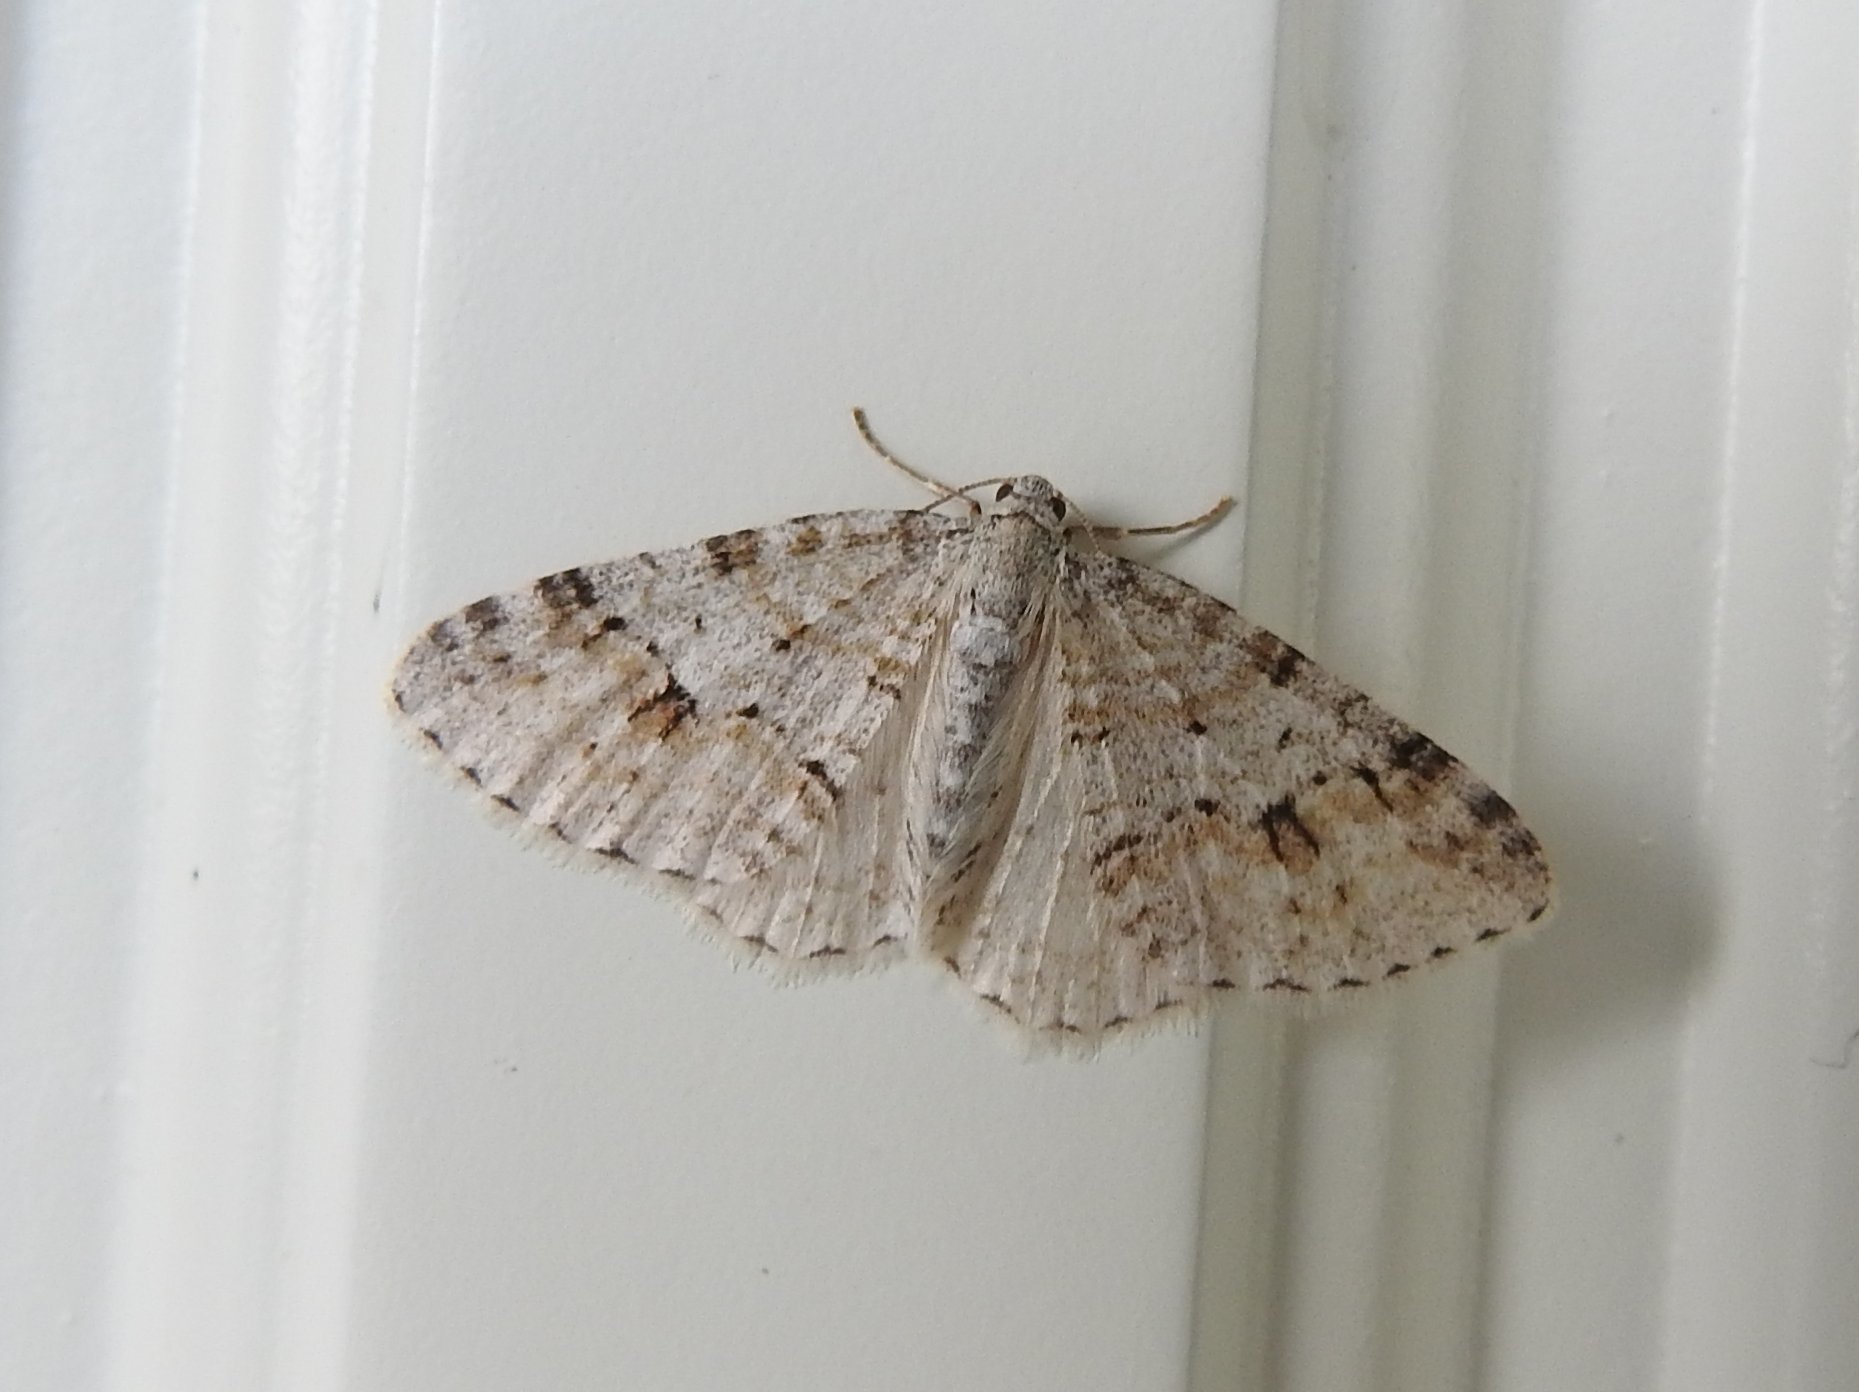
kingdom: Animalia
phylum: Arthropoda
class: Insecta
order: Lepidoptera
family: Geometridae
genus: Venusia
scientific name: Venusia cambrica
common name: Welsh wave
